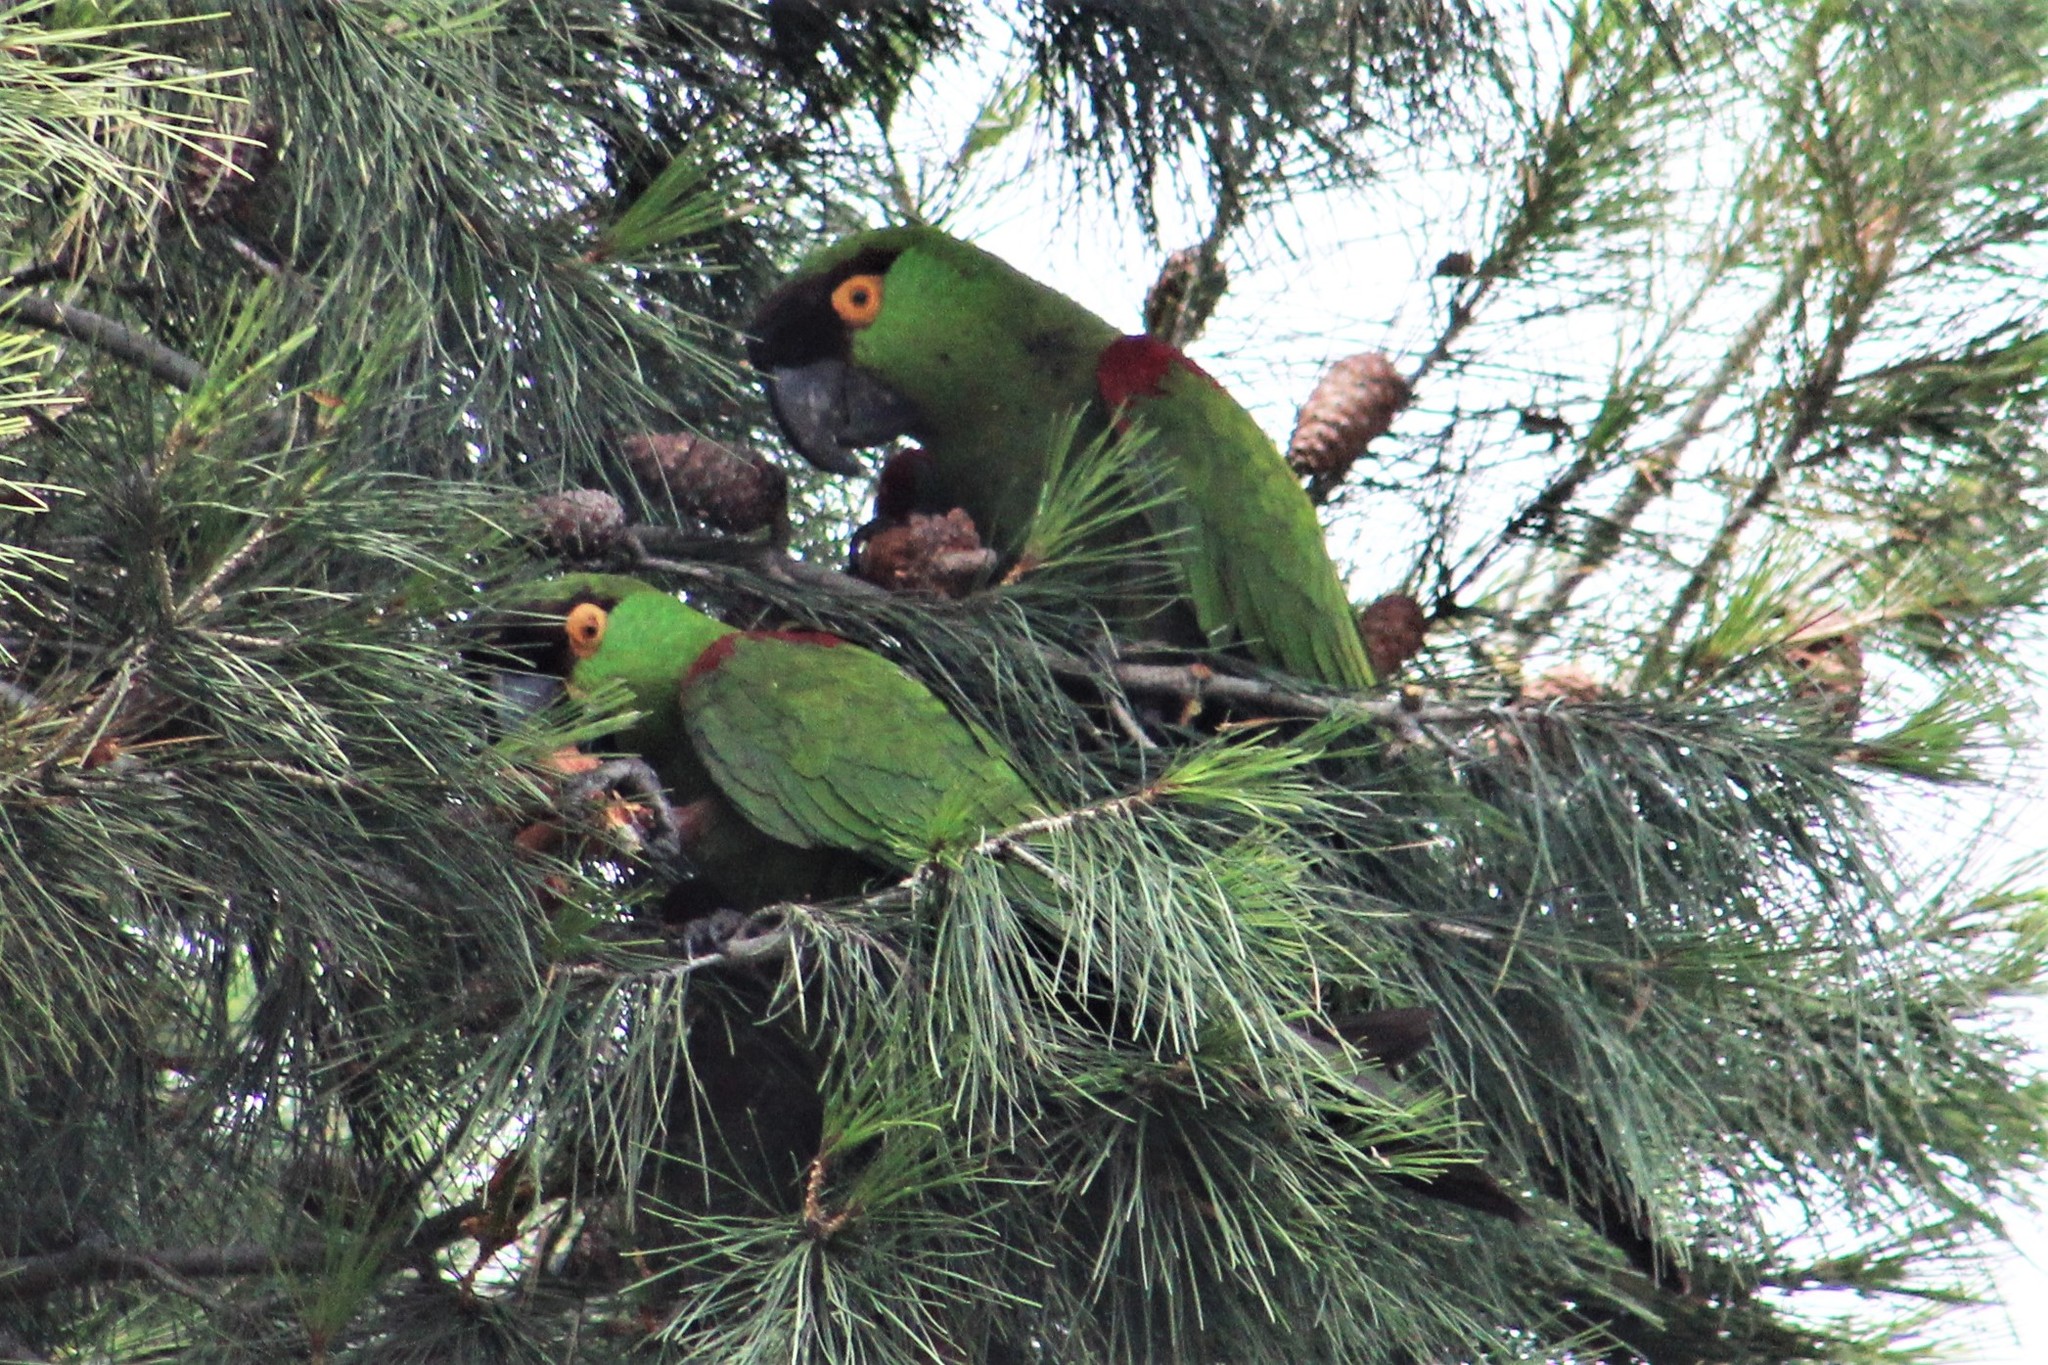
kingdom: Animalia
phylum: Chordata
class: Aves
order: Psittaciformes
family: Psittacidae
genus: Rhynchopsitta
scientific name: Rhynchopsitta terrisi
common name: Maroon-fronted parrot
